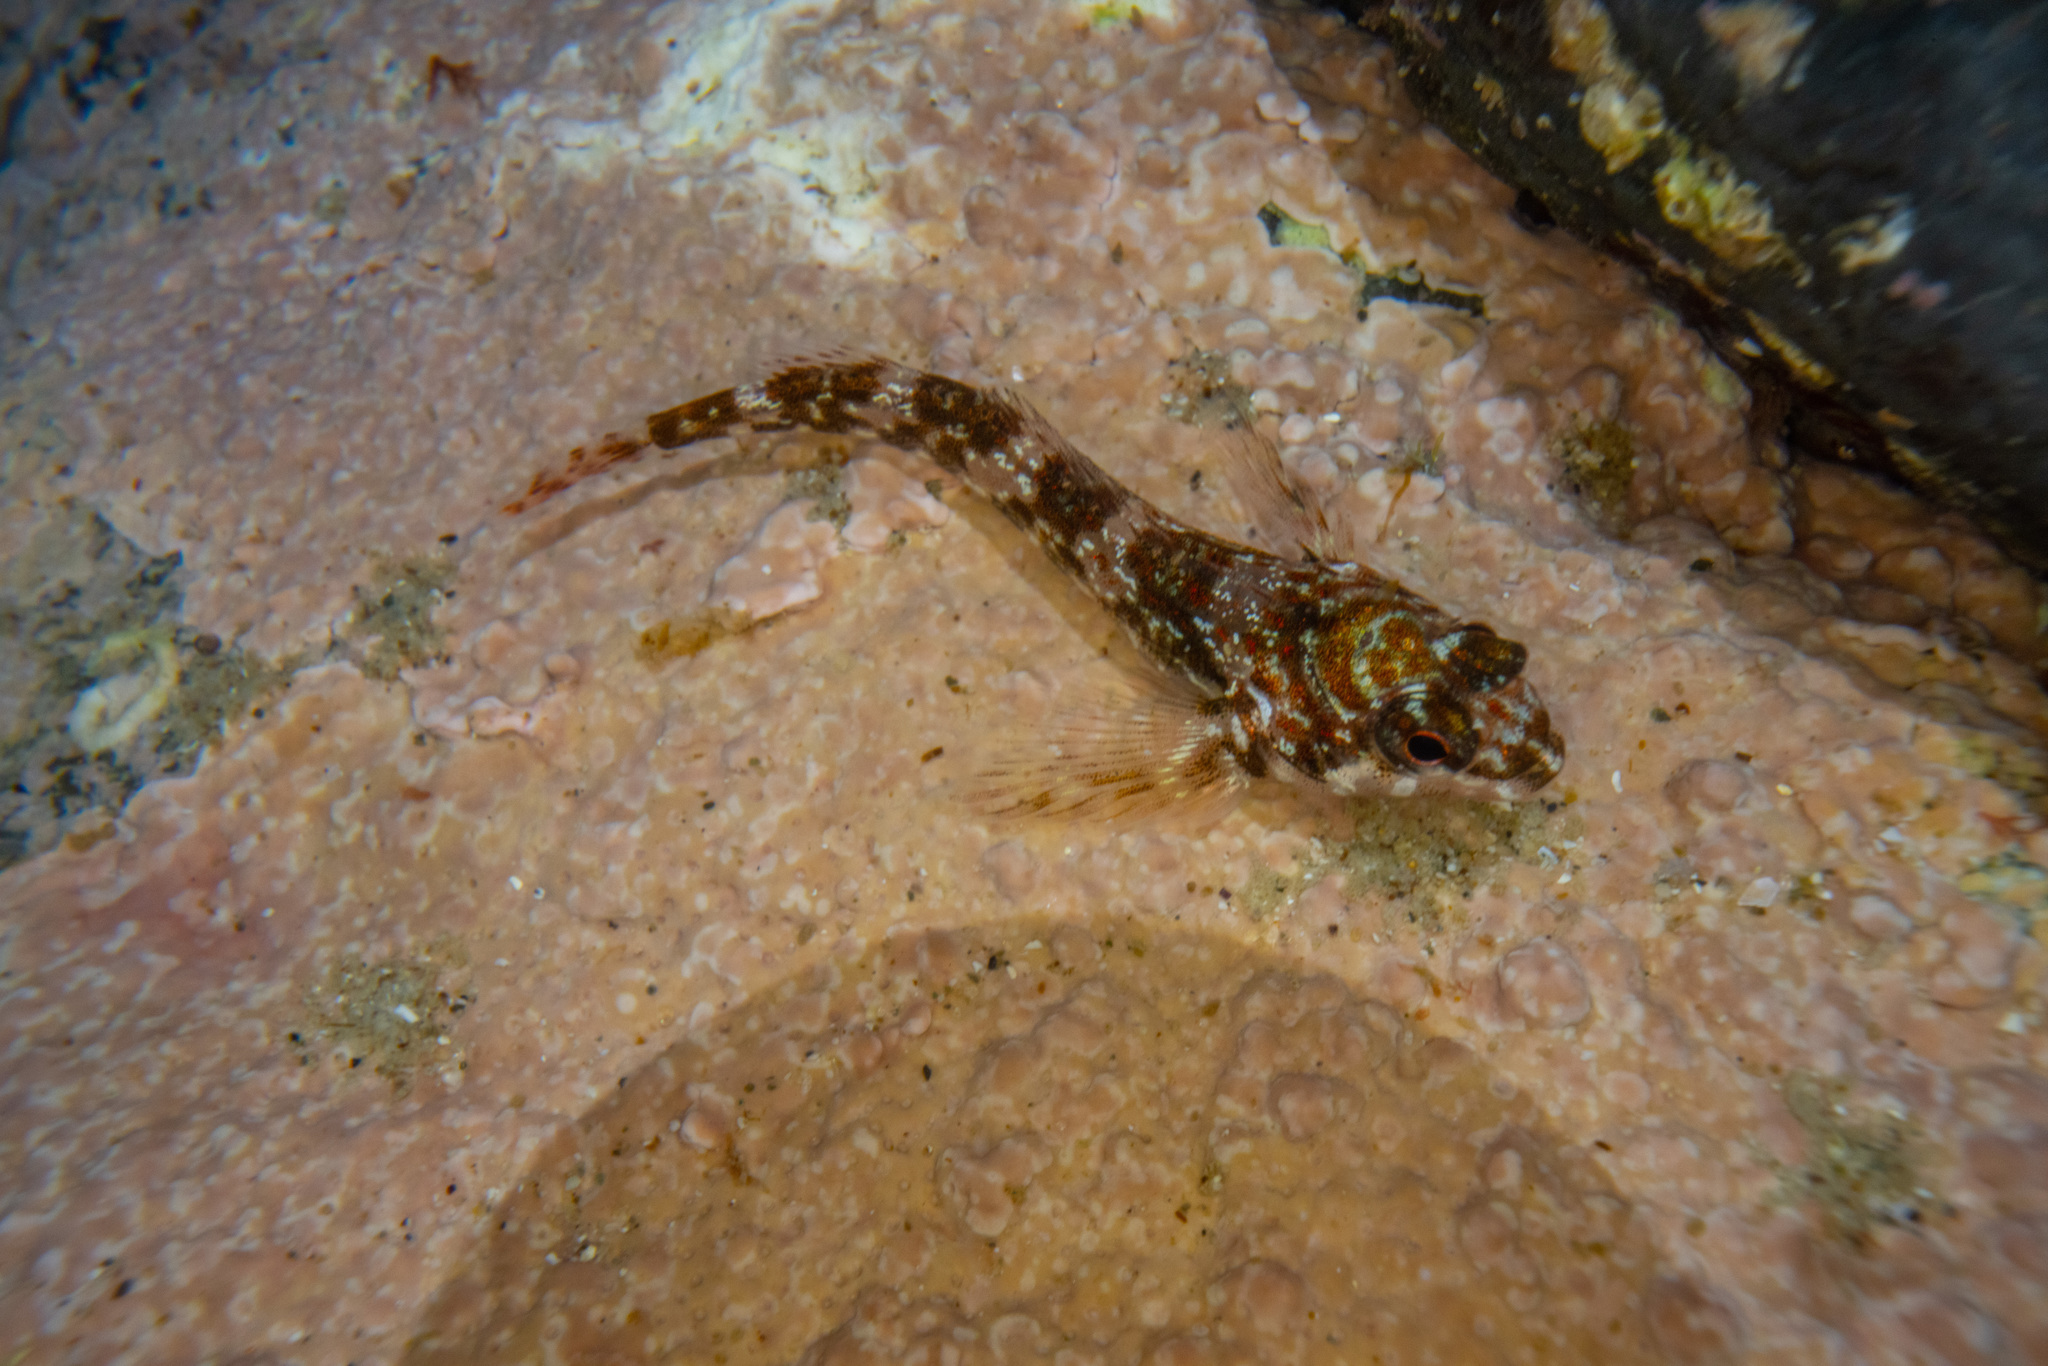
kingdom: Animalia
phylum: Chordata
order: Perciformes
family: Tripterygiidae
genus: Bellapiscis
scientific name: Bellapiscis lesleyae
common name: Mottled twister
